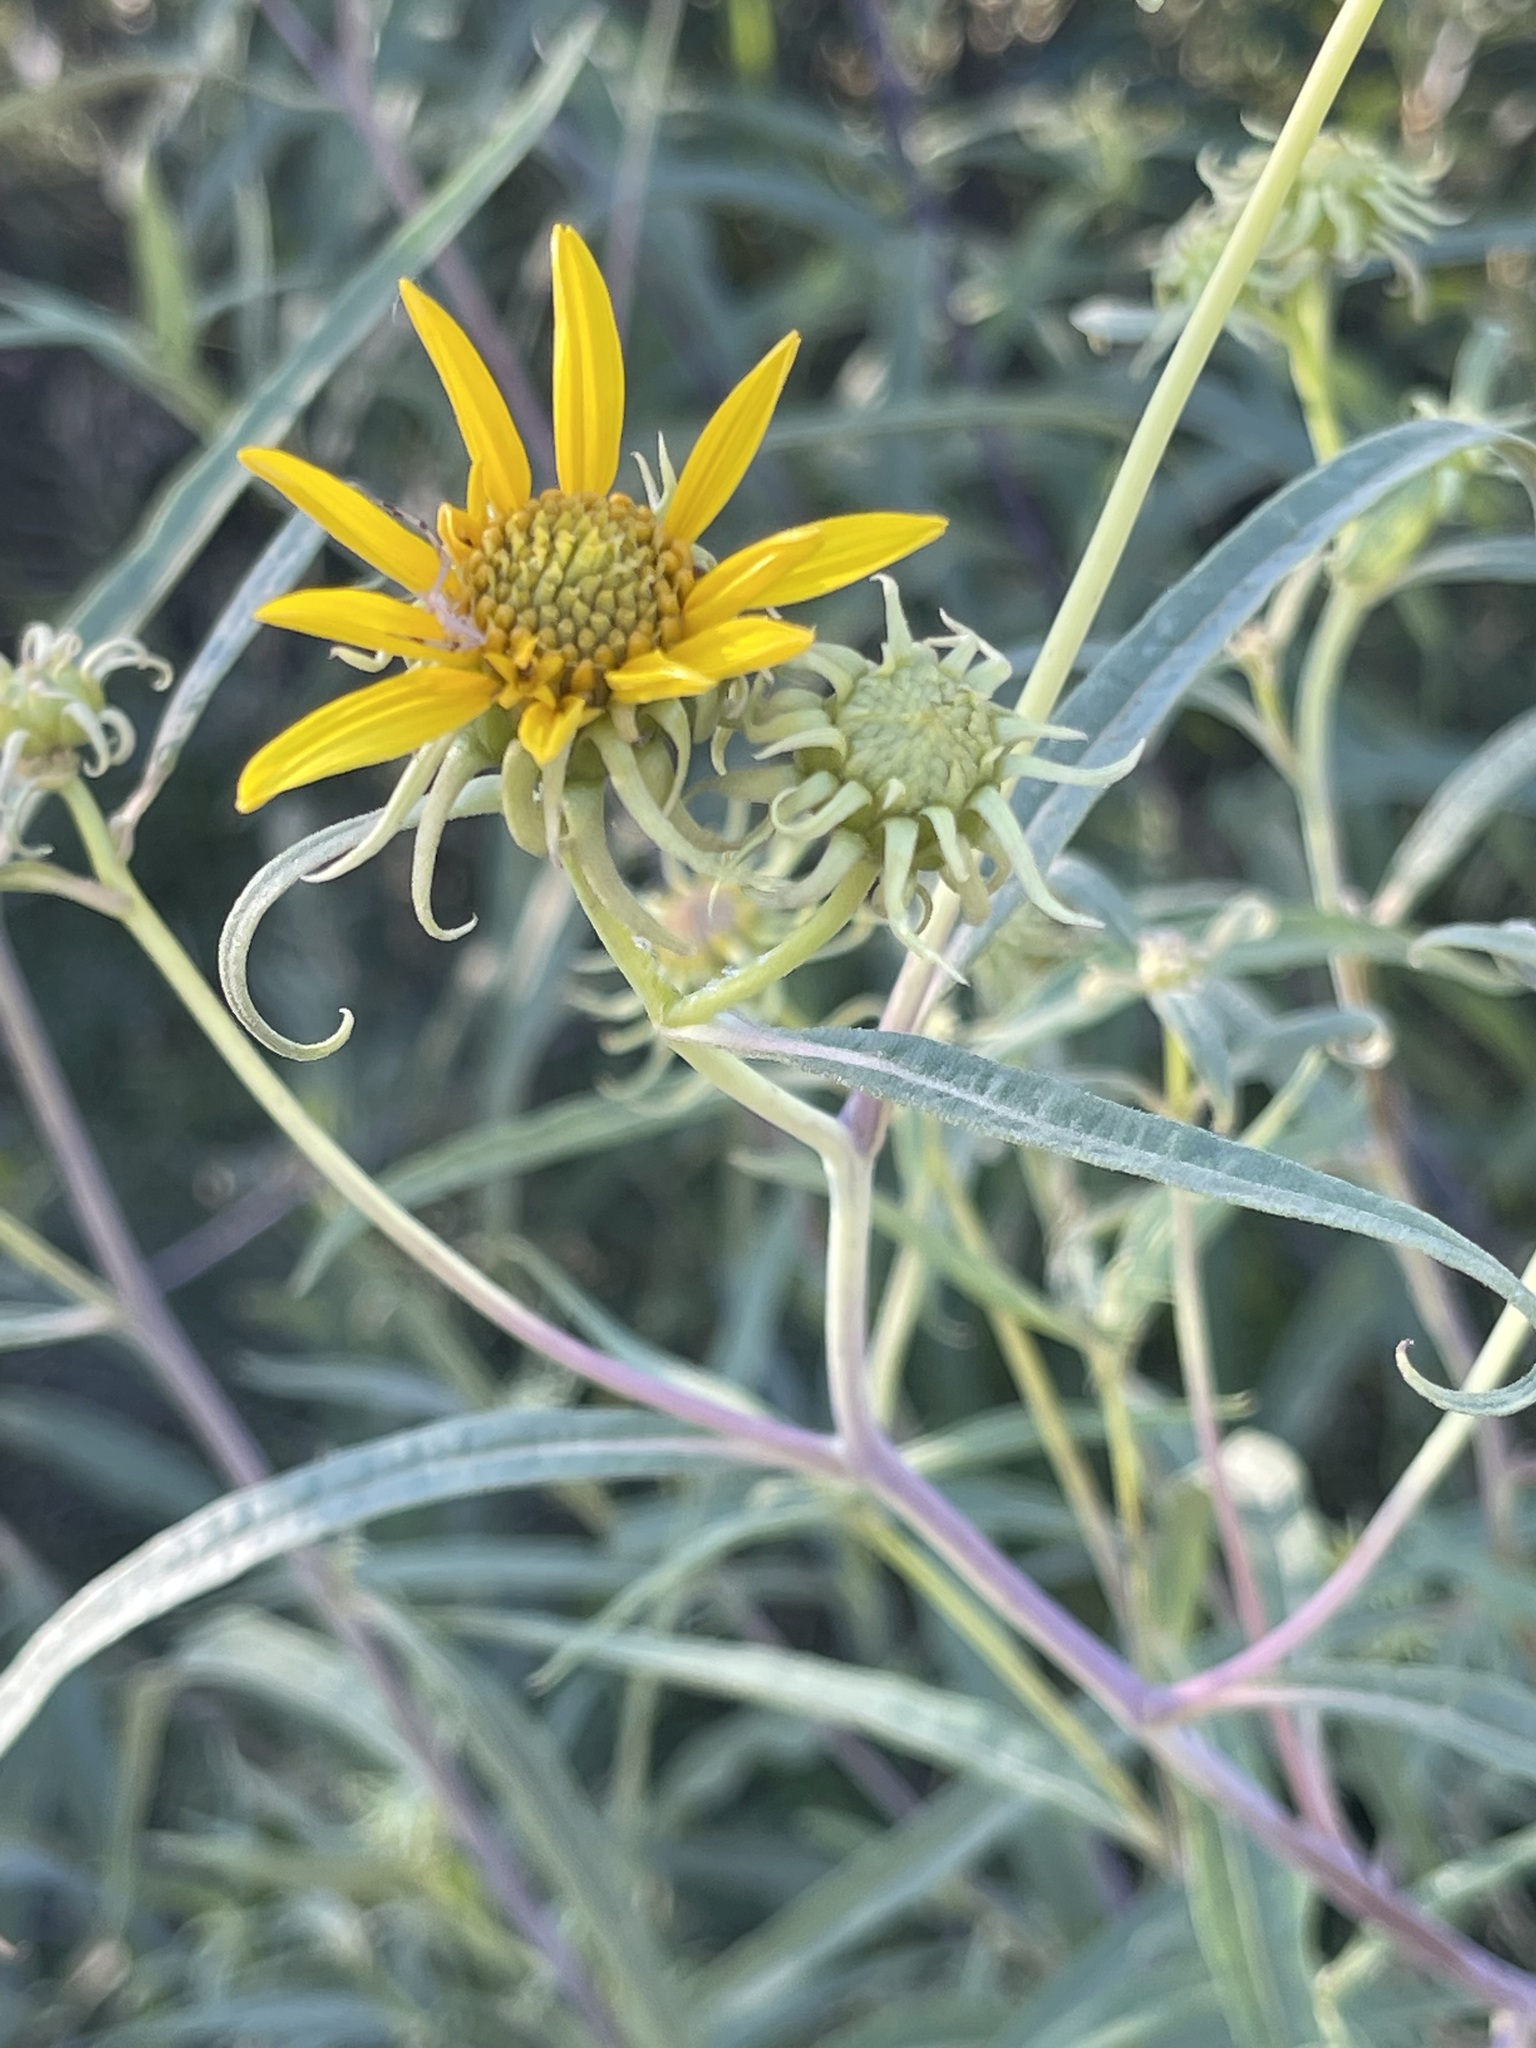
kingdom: Plantae
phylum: Tracheophyta
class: Magnoliopsida
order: Asterales
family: Asteraceae
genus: Helianthus
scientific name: Helianthus californicus
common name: California sunflower
